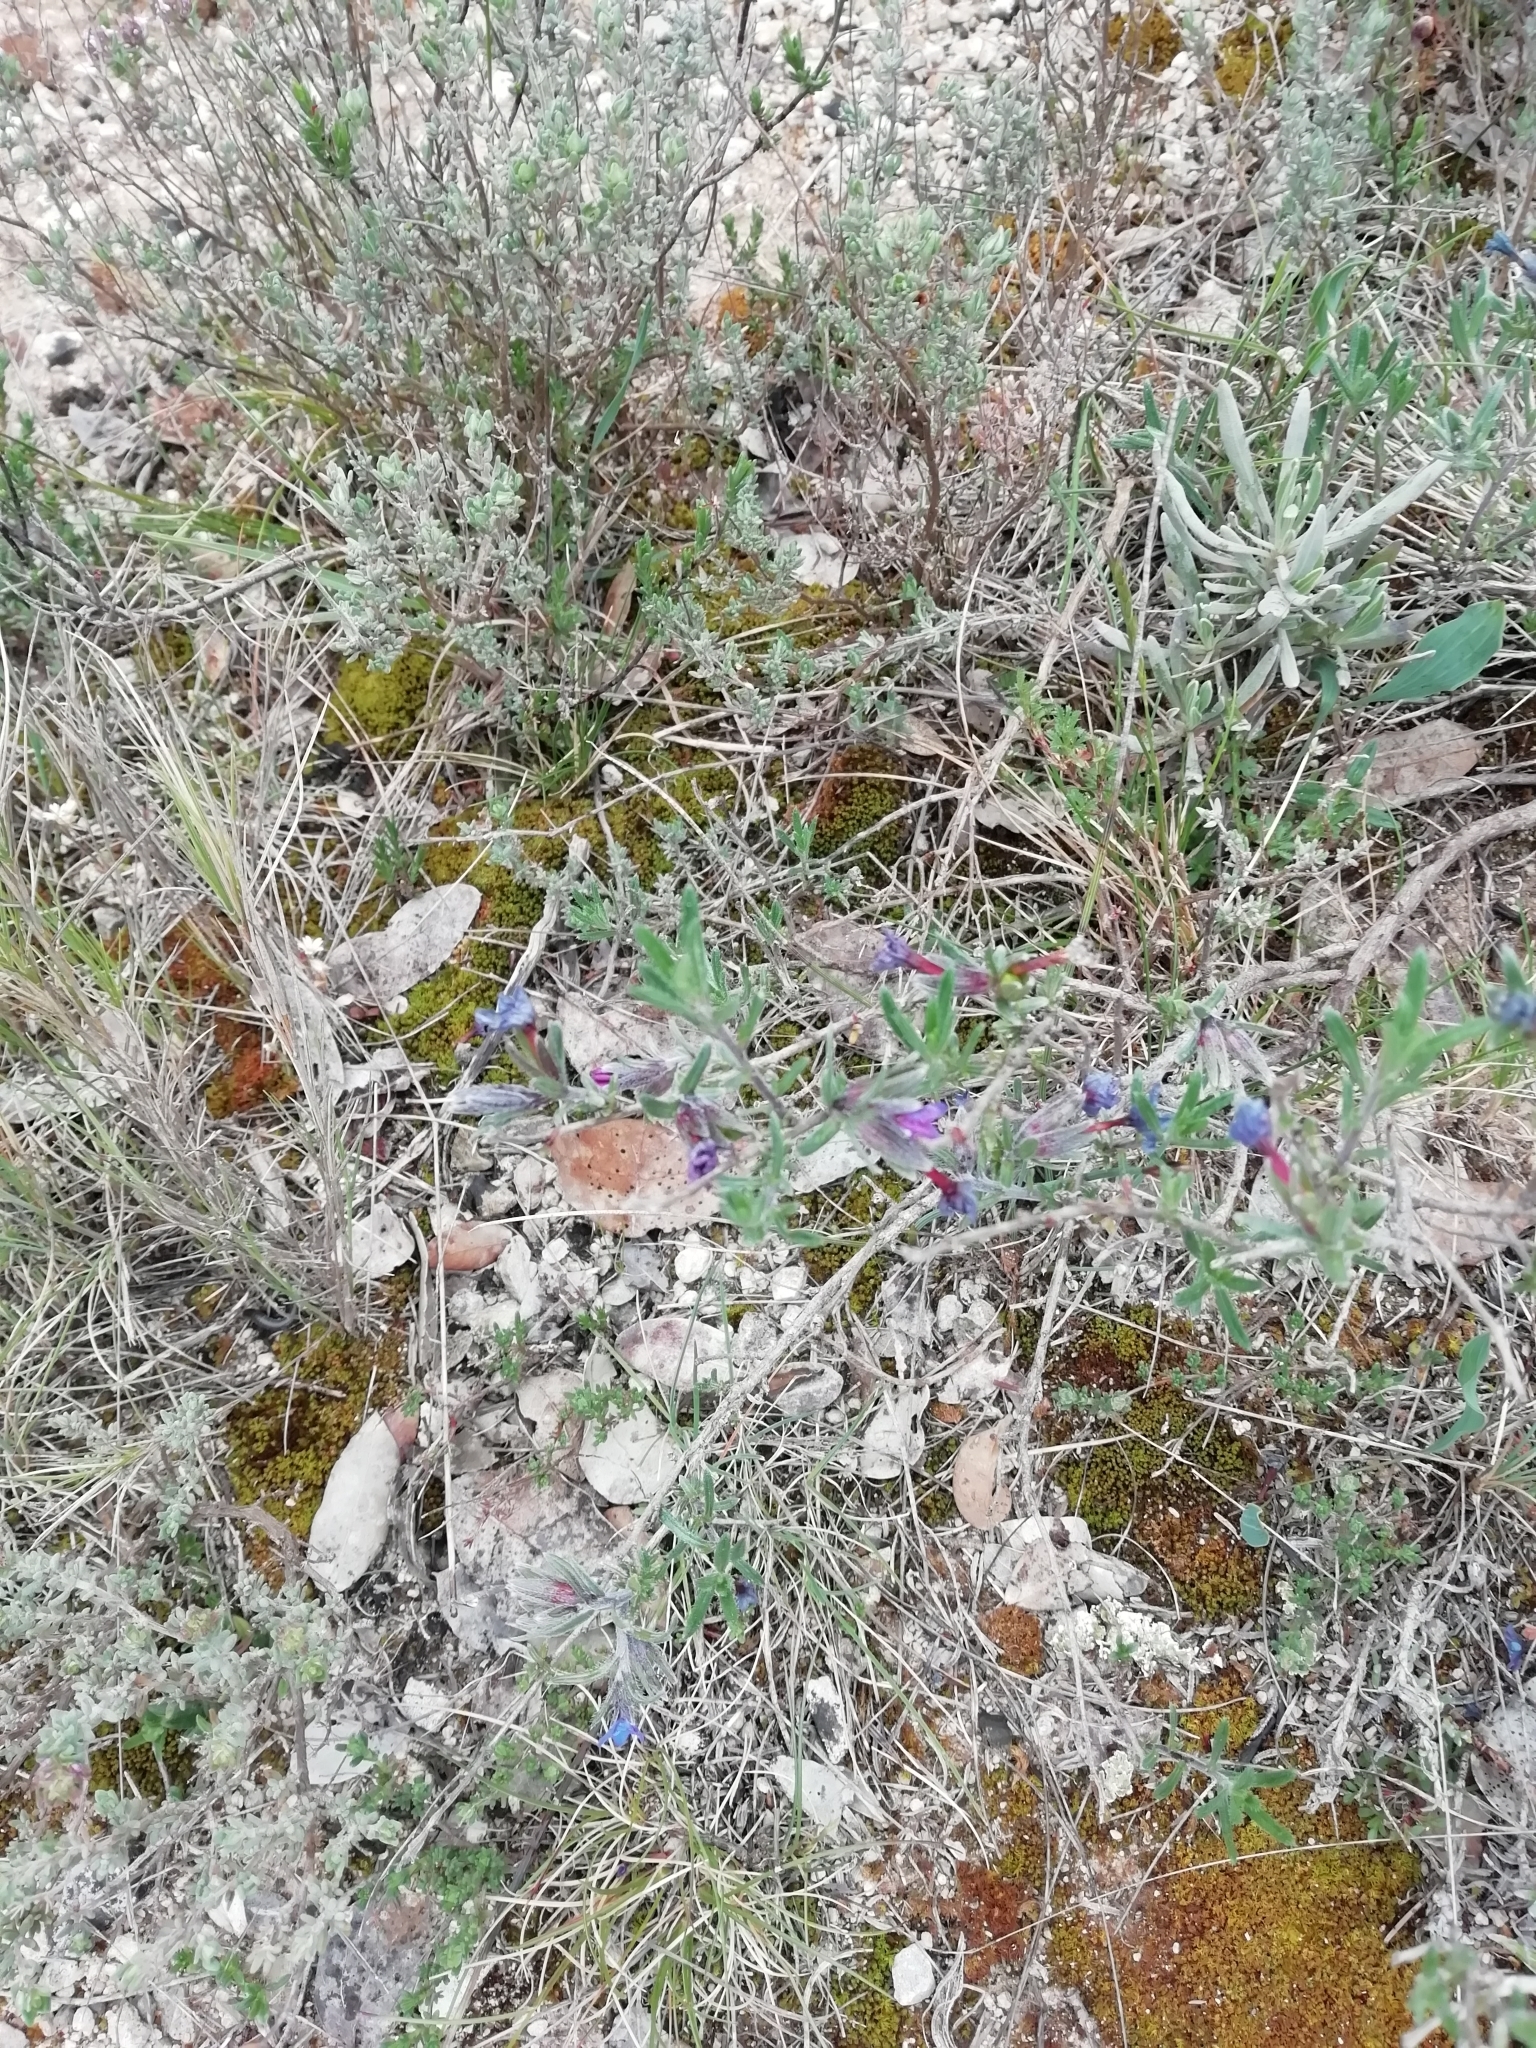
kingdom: Plantae
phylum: Tracheophyta
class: Magnoliopsida
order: Boraginales
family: Boraginaceae
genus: Lithodora
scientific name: Lithodora fruticosa
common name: Shrubby gromwell
